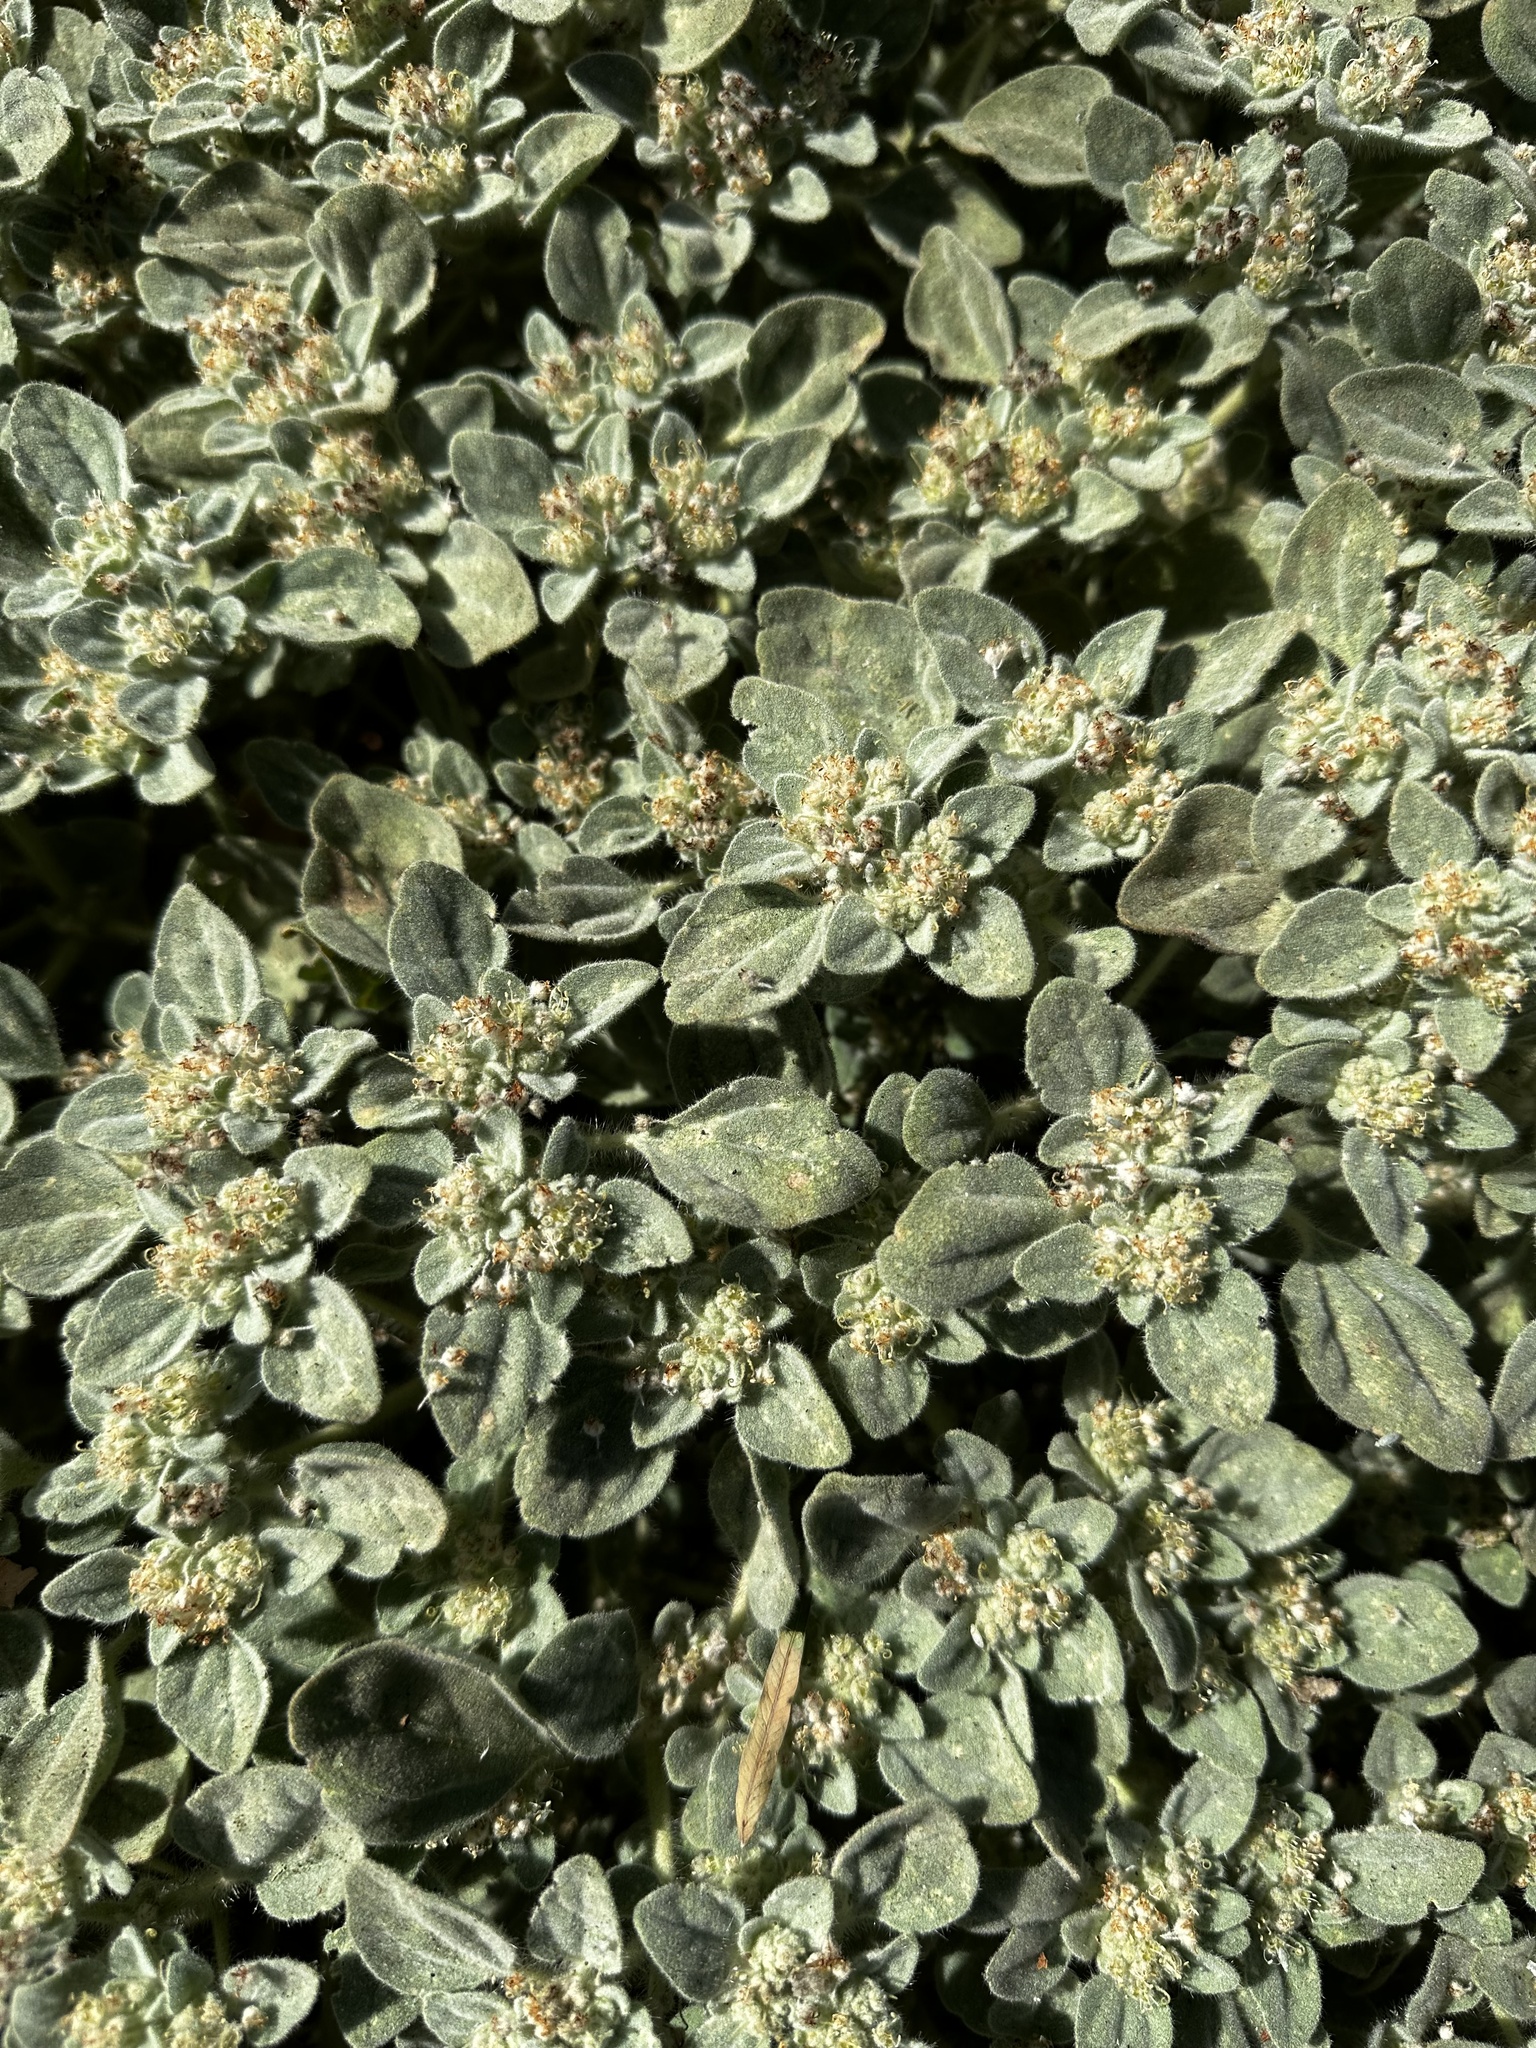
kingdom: Plantae
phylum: Tracheophyta
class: Magnoliopsida
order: Malpighiales
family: Euphorbiaceae
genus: Croton
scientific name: Croton setiger
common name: Dove weed
